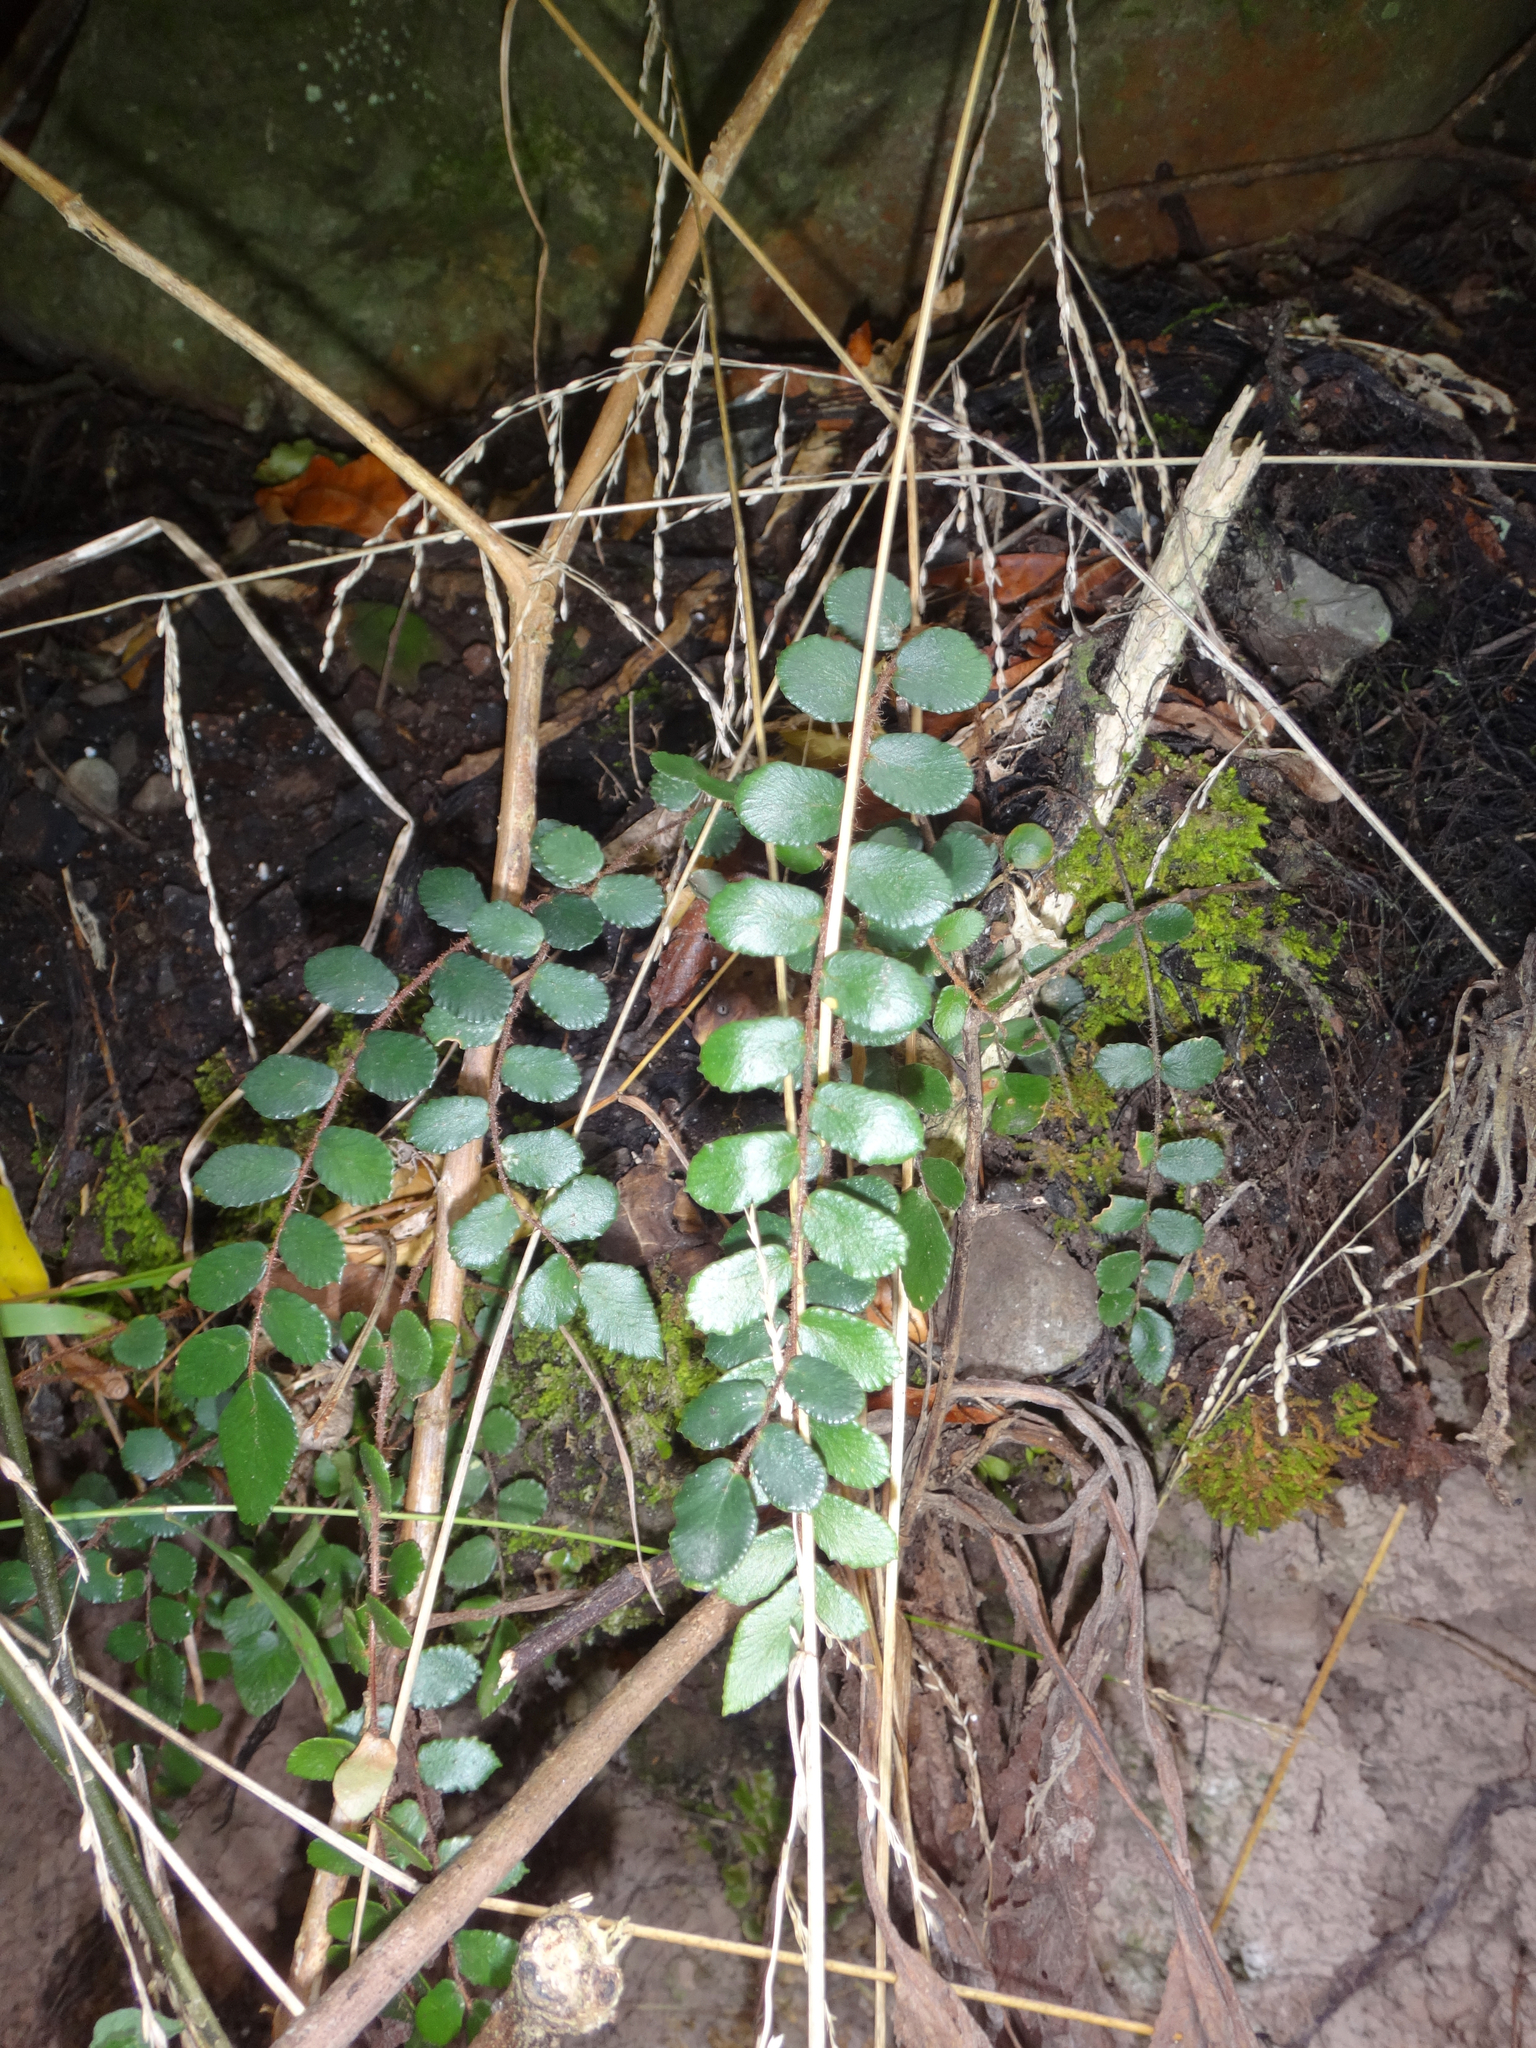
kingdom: Plantae
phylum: Tracheophyta
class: Polypodiopsida
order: Polypodiales
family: Pteridaceae
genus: Pellaea
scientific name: Pellaea rotundifolia
